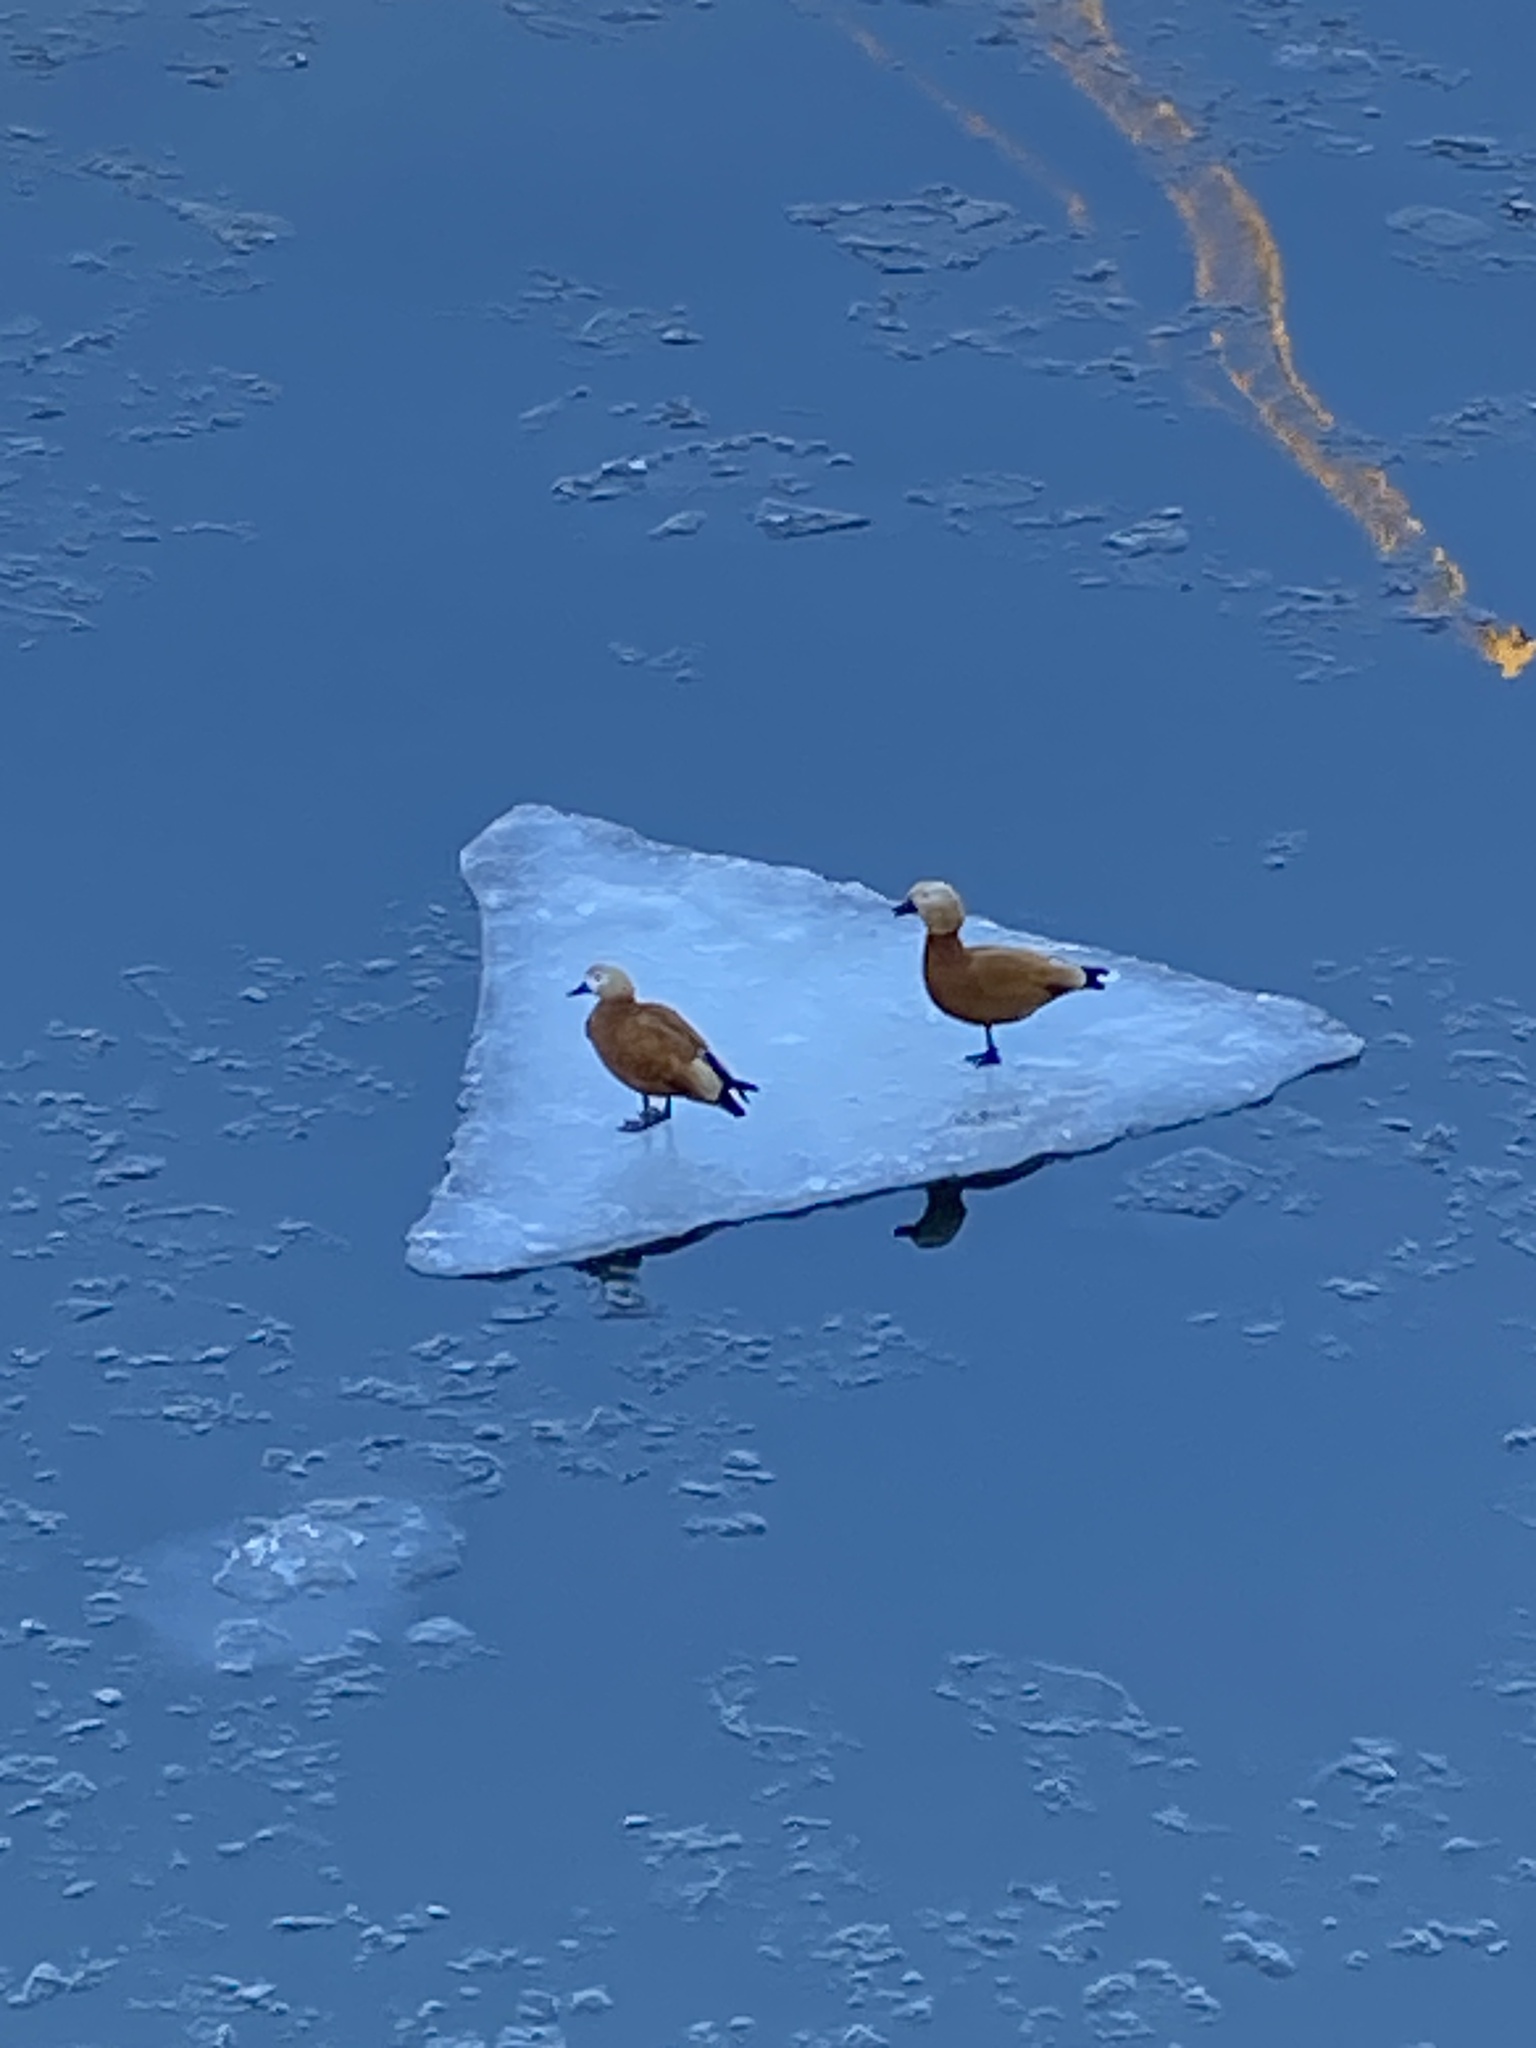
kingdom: Animalia
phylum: Chordata
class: Aves
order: Anseriformes
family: Anatidae
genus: Tadorna
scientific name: Tadorna ferruginea
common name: Ruddy shelduck
